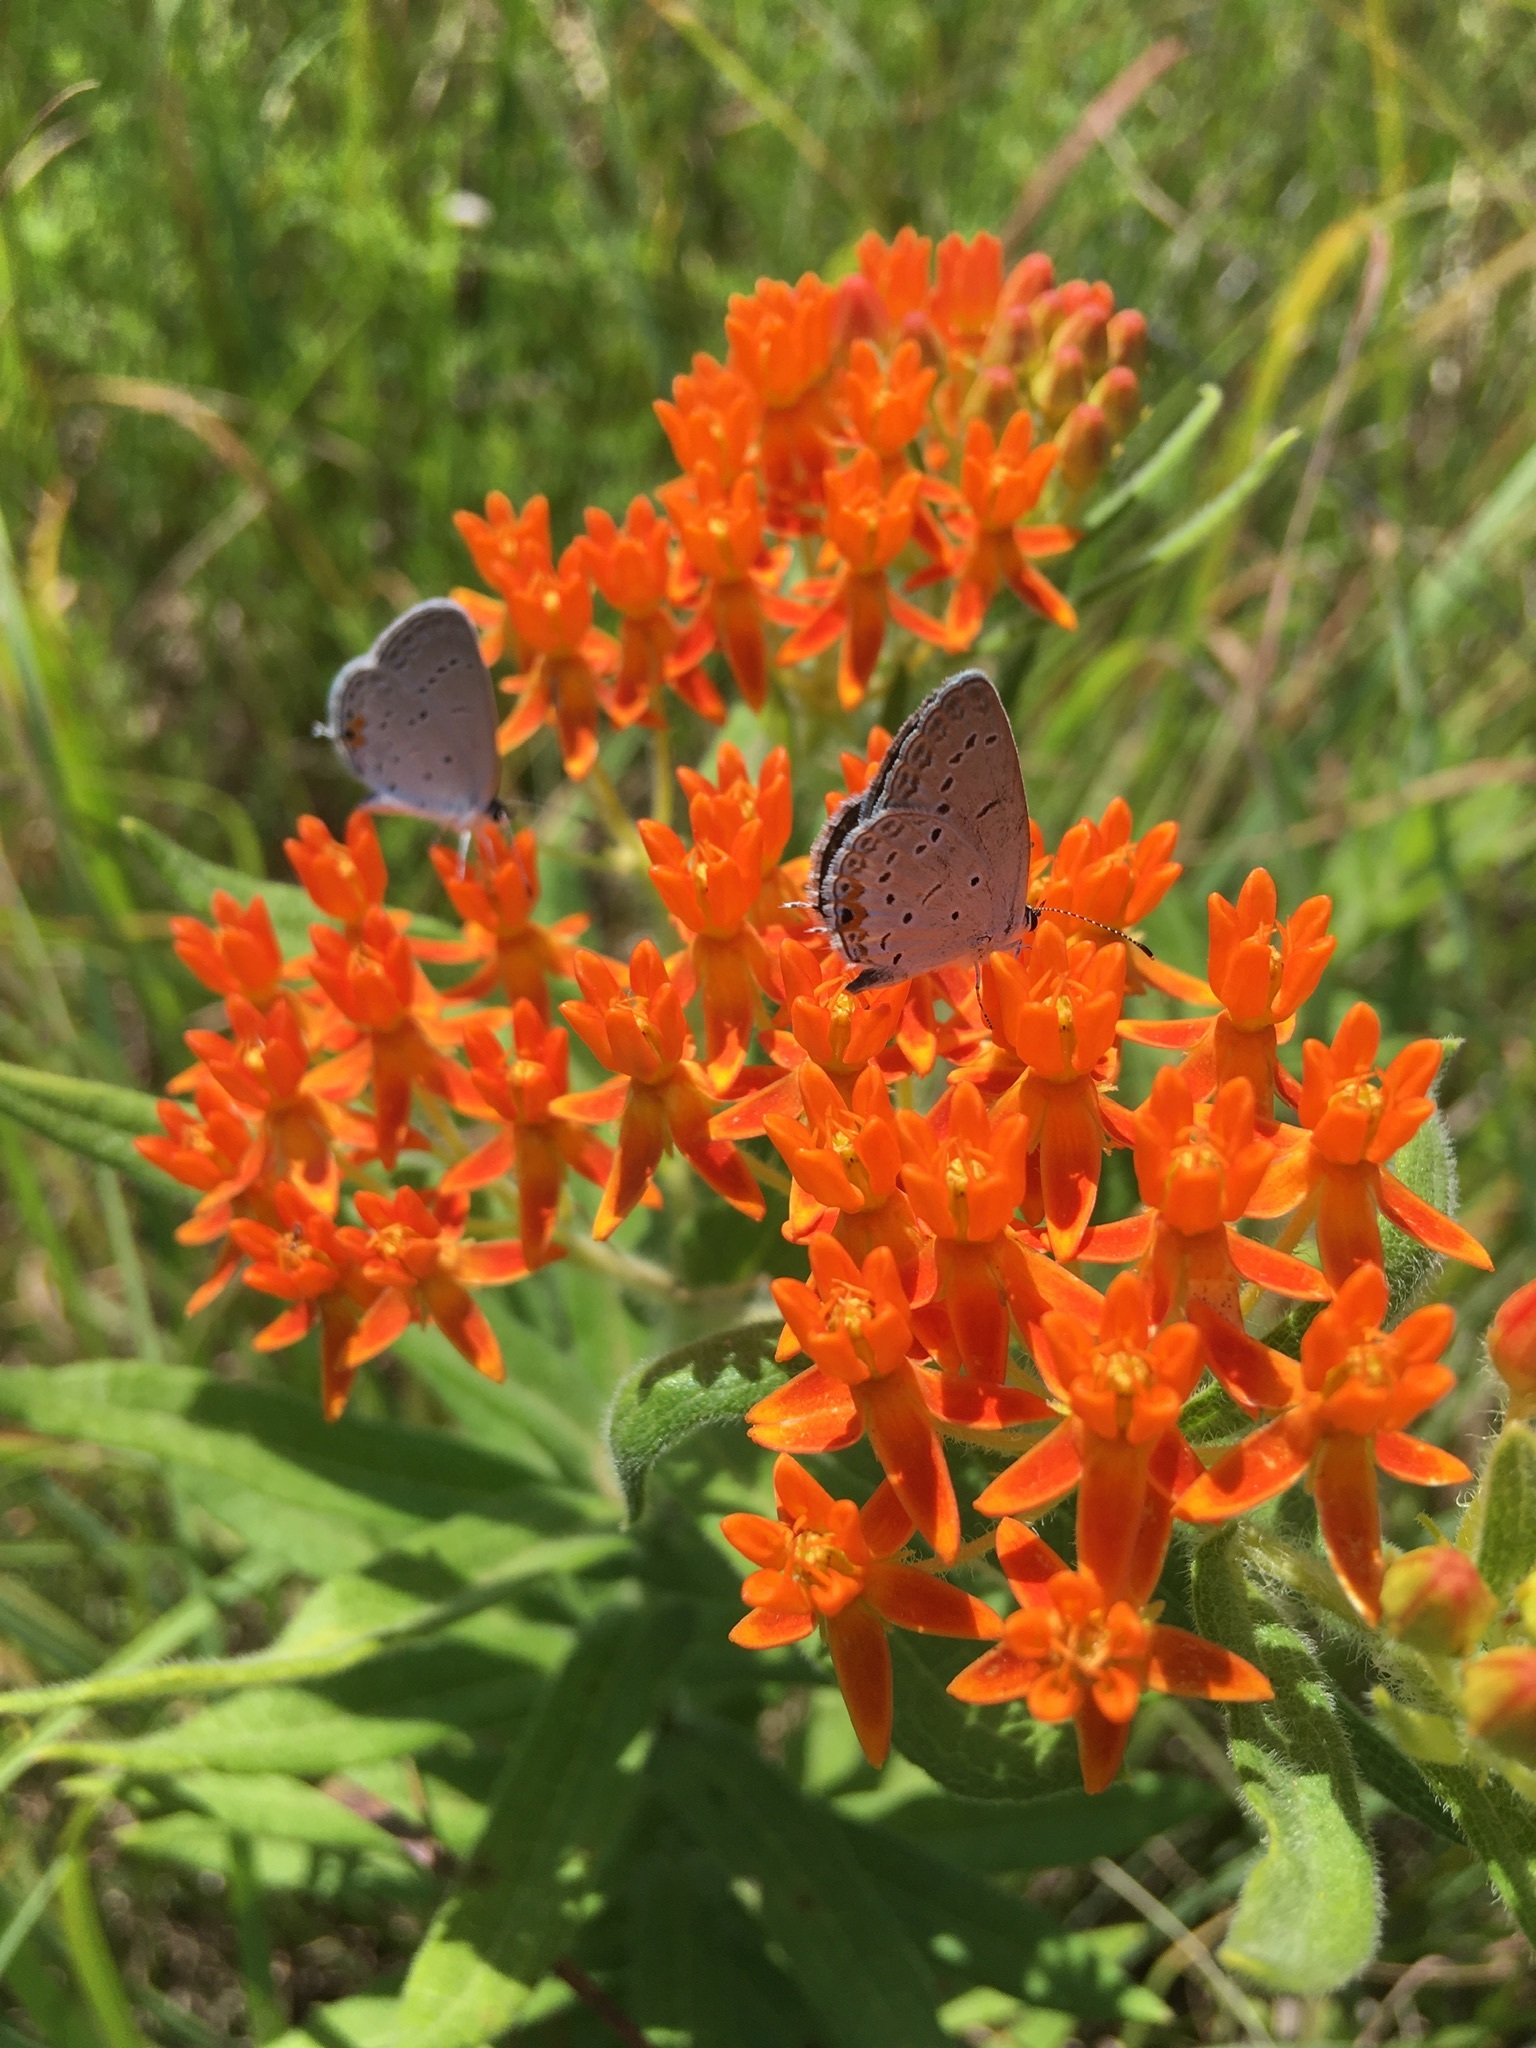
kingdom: Animalia
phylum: Arthropoda
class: Insecta
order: Lepidoptera
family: Lycaenidae
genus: Elkalyce
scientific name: Elkalyce comyntas
